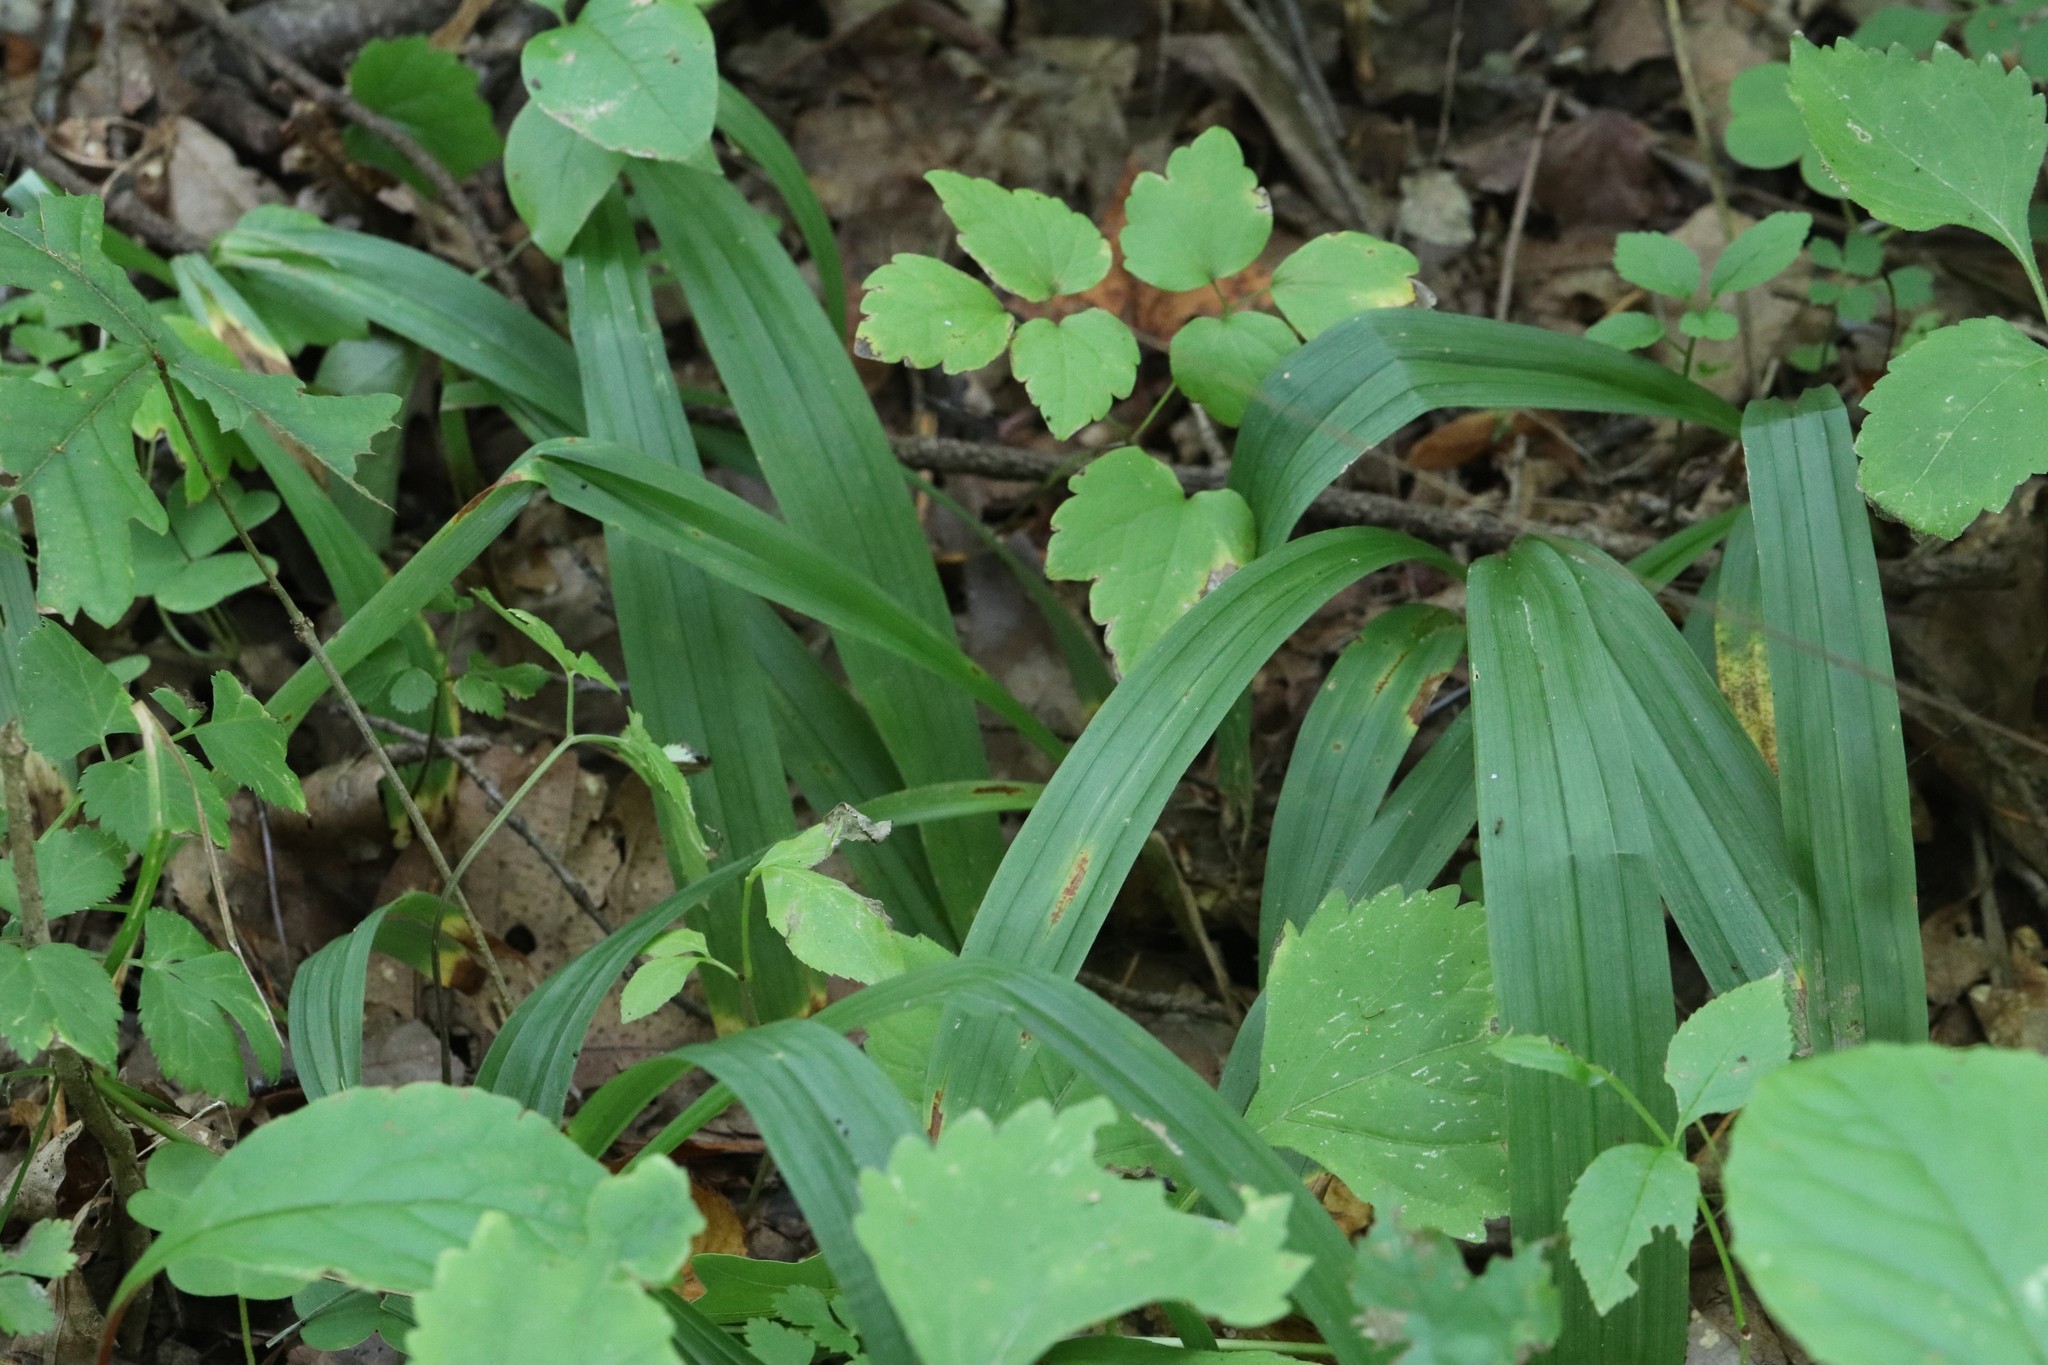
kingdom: Plantae
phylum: Tracheophyta
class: Liliopsida
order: Poales
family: Cyperaceae
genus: Carex
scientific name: Carex siderosticta
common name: Broadleaf sedge
